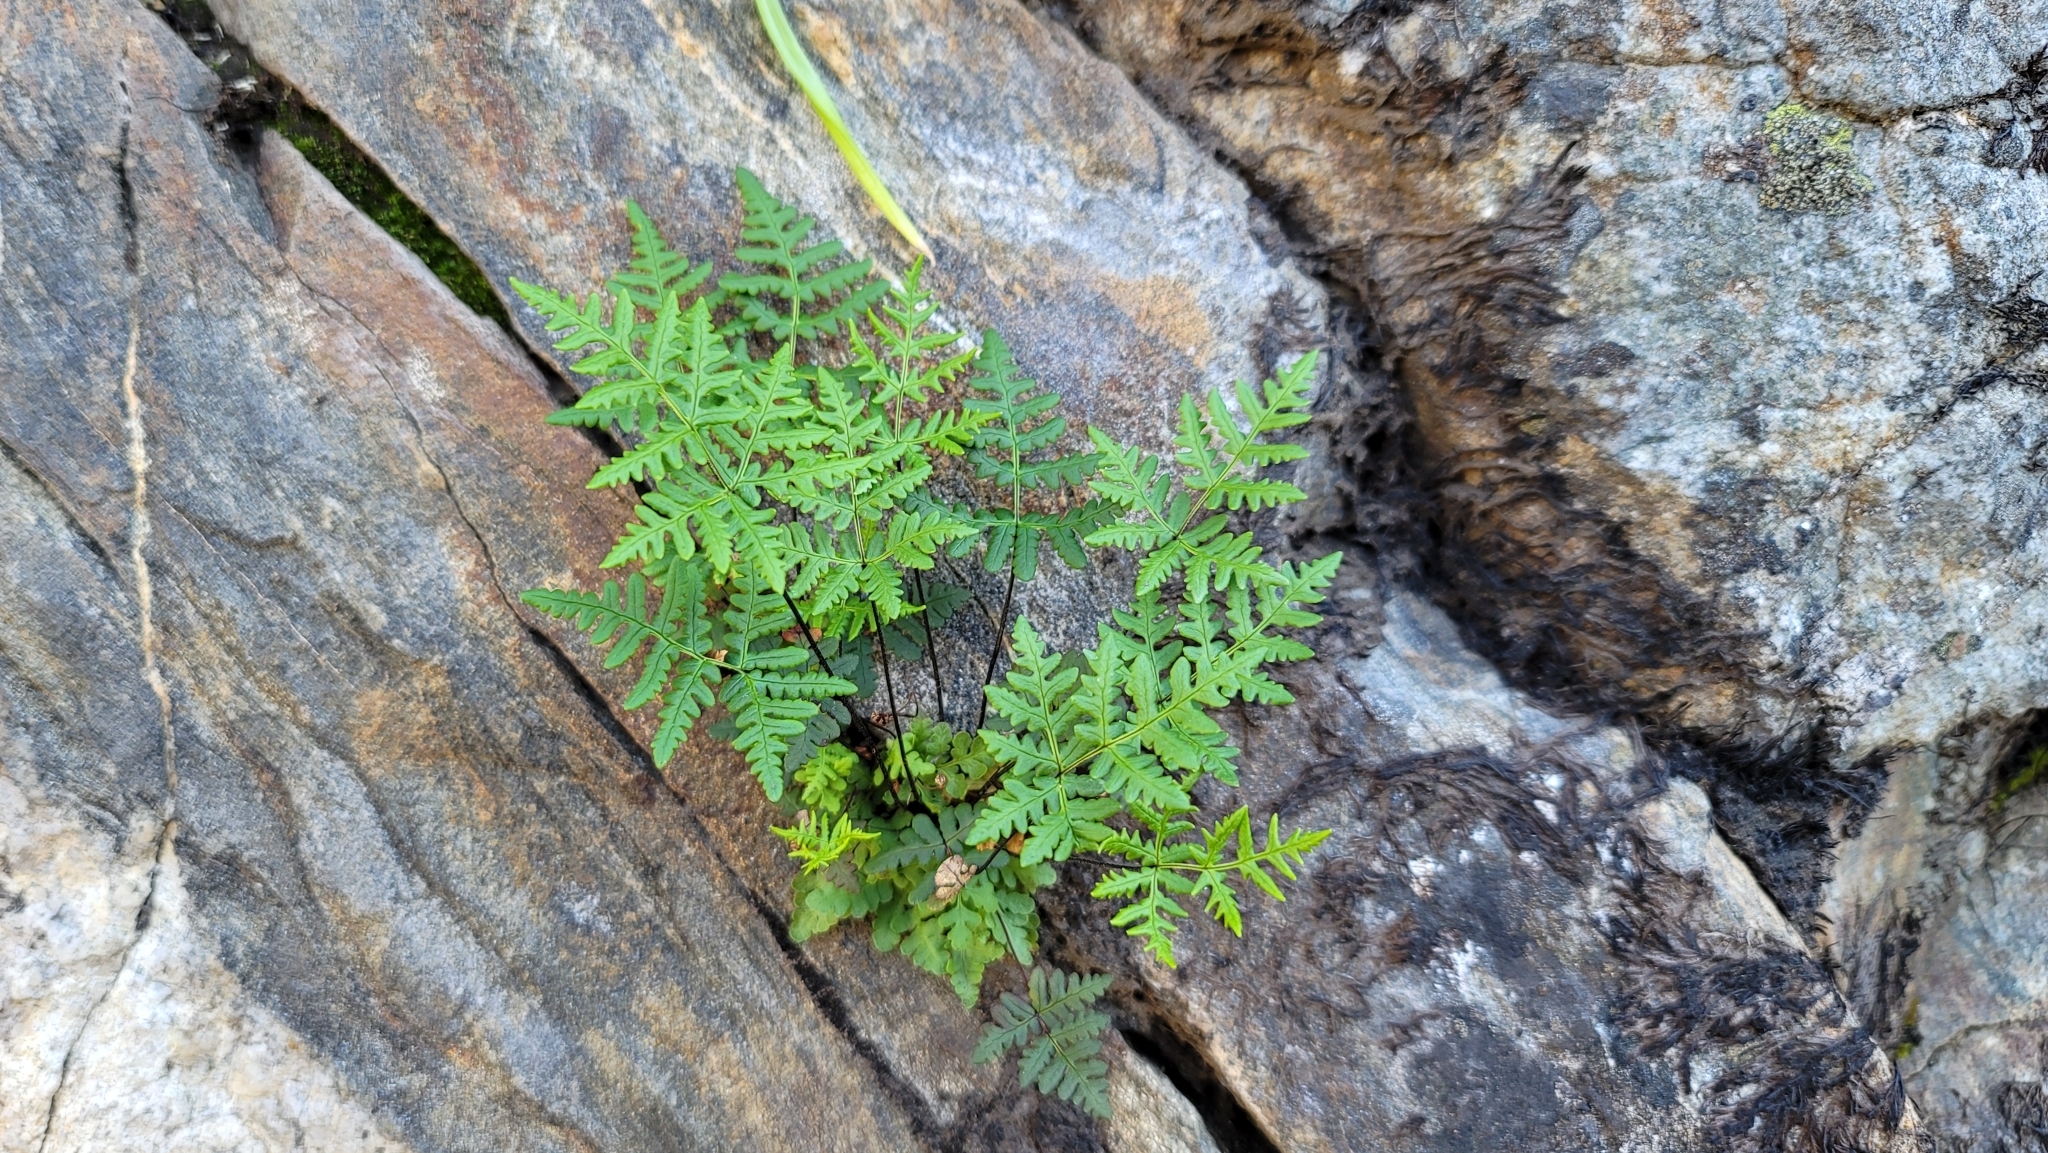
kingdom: Plantae
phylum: Tracheophyta
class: Polypodiopsida
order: Polypodiales
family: Pteridaceae
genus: Pentagramma
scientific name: Pentagramma triangularis
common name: Gold fern
